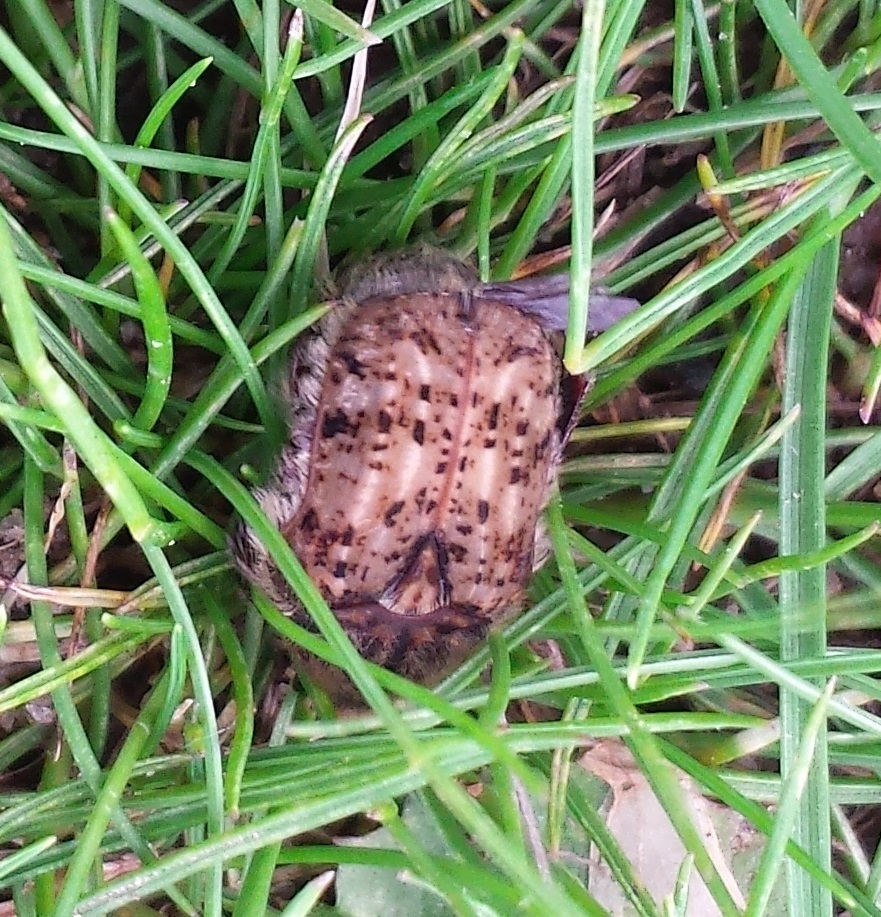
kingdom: Animalia
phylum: Arthropoda
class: Insecta
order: Coleoptera
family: Scarabaeidae
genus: Euphoria
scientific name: Euphoria inda
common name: Bumble flower beetle
